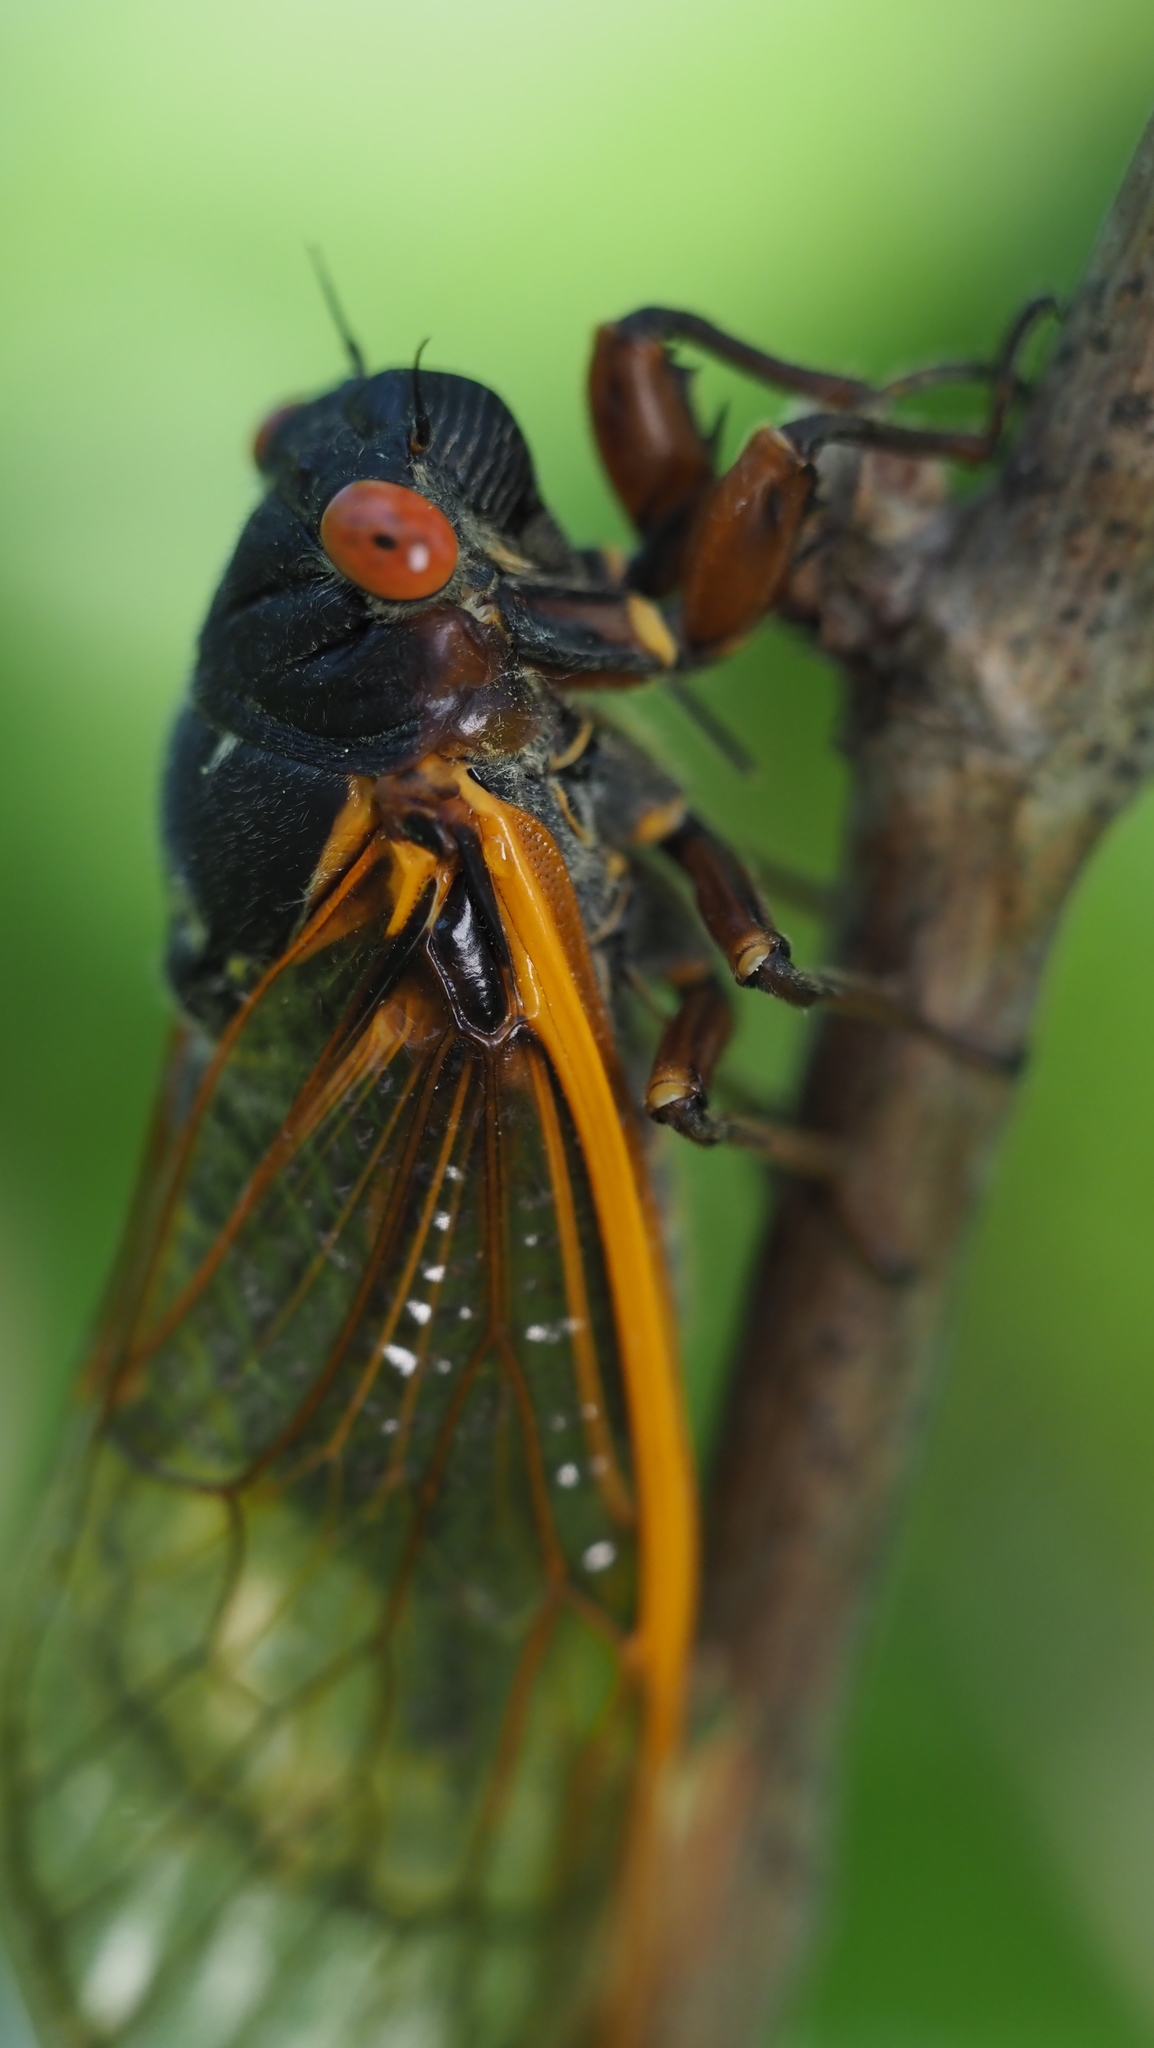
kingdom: Animalia
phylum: Arthropoda
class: Insecta
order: Hemiptera
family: Cicadidae
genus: Magicicada
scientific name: Magicicada septendecim
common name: Periodical cicada
